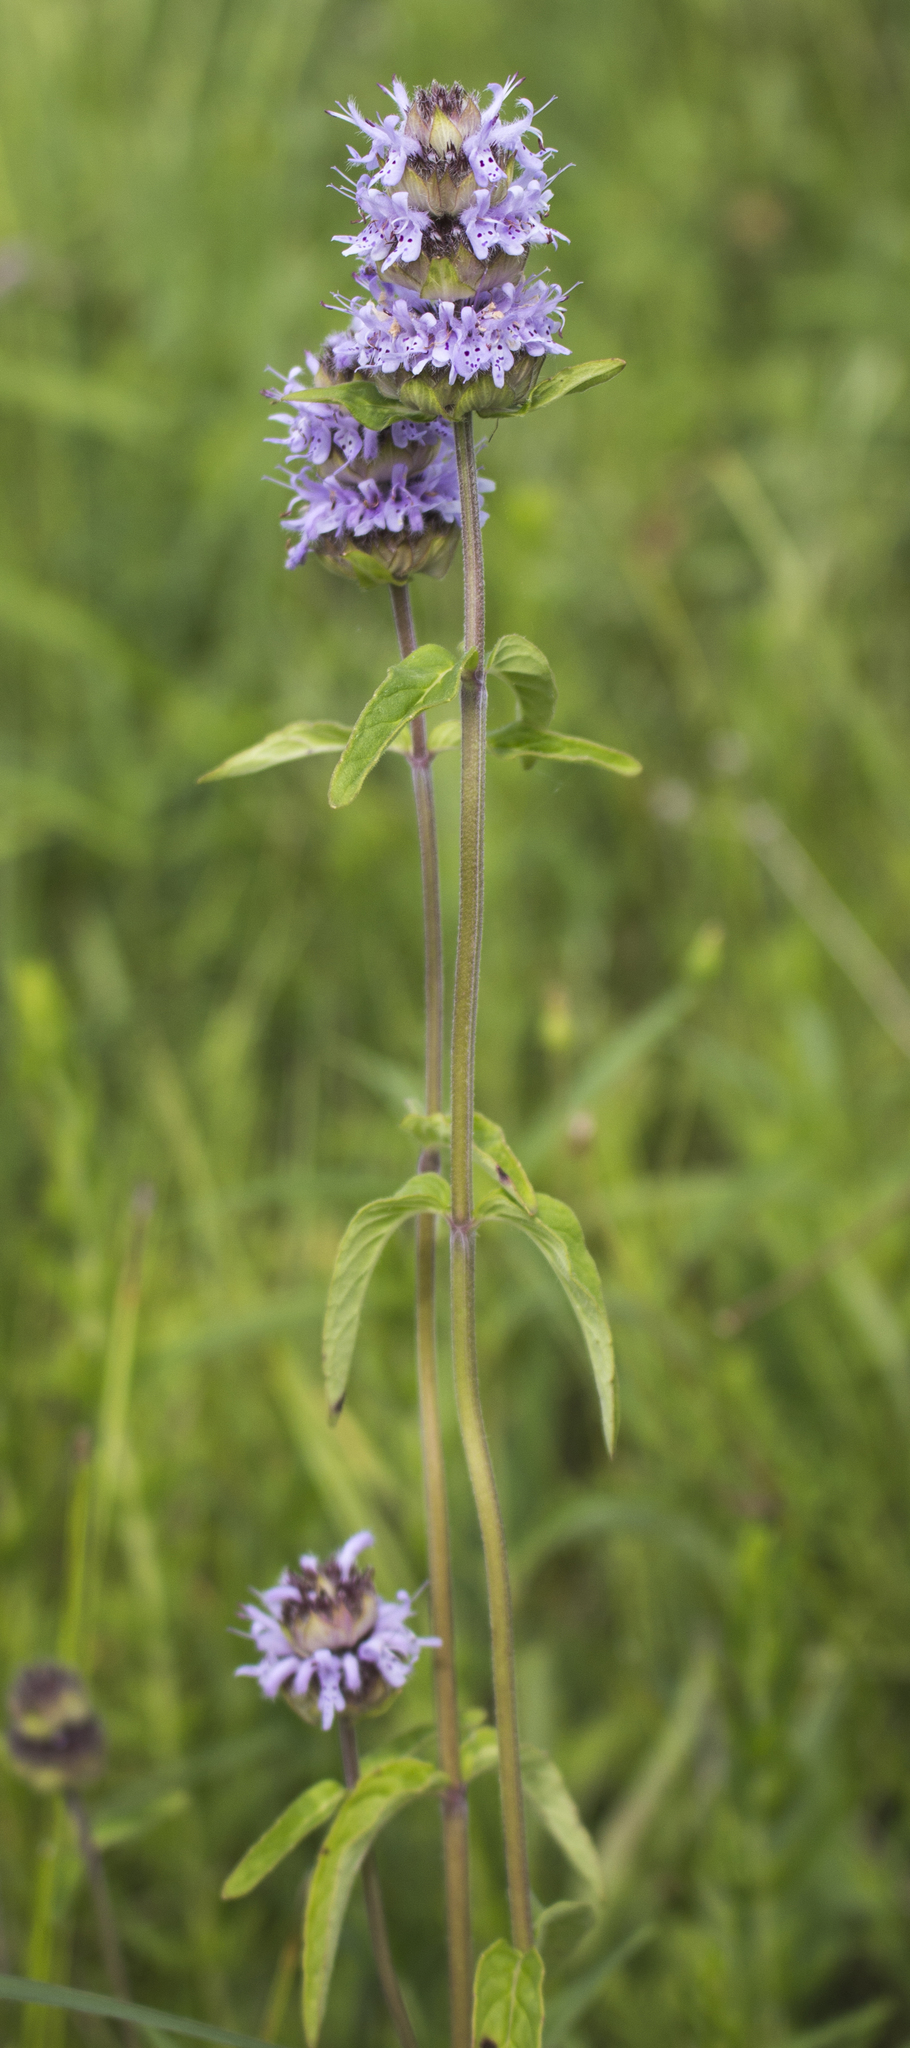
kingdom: Plantae
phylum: Tracheophyta
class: Magnoliopsida
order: Lamiales
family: Lamiaceae
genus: Blephilia
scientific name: Blephilia ciliata
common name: Downy blephilia
